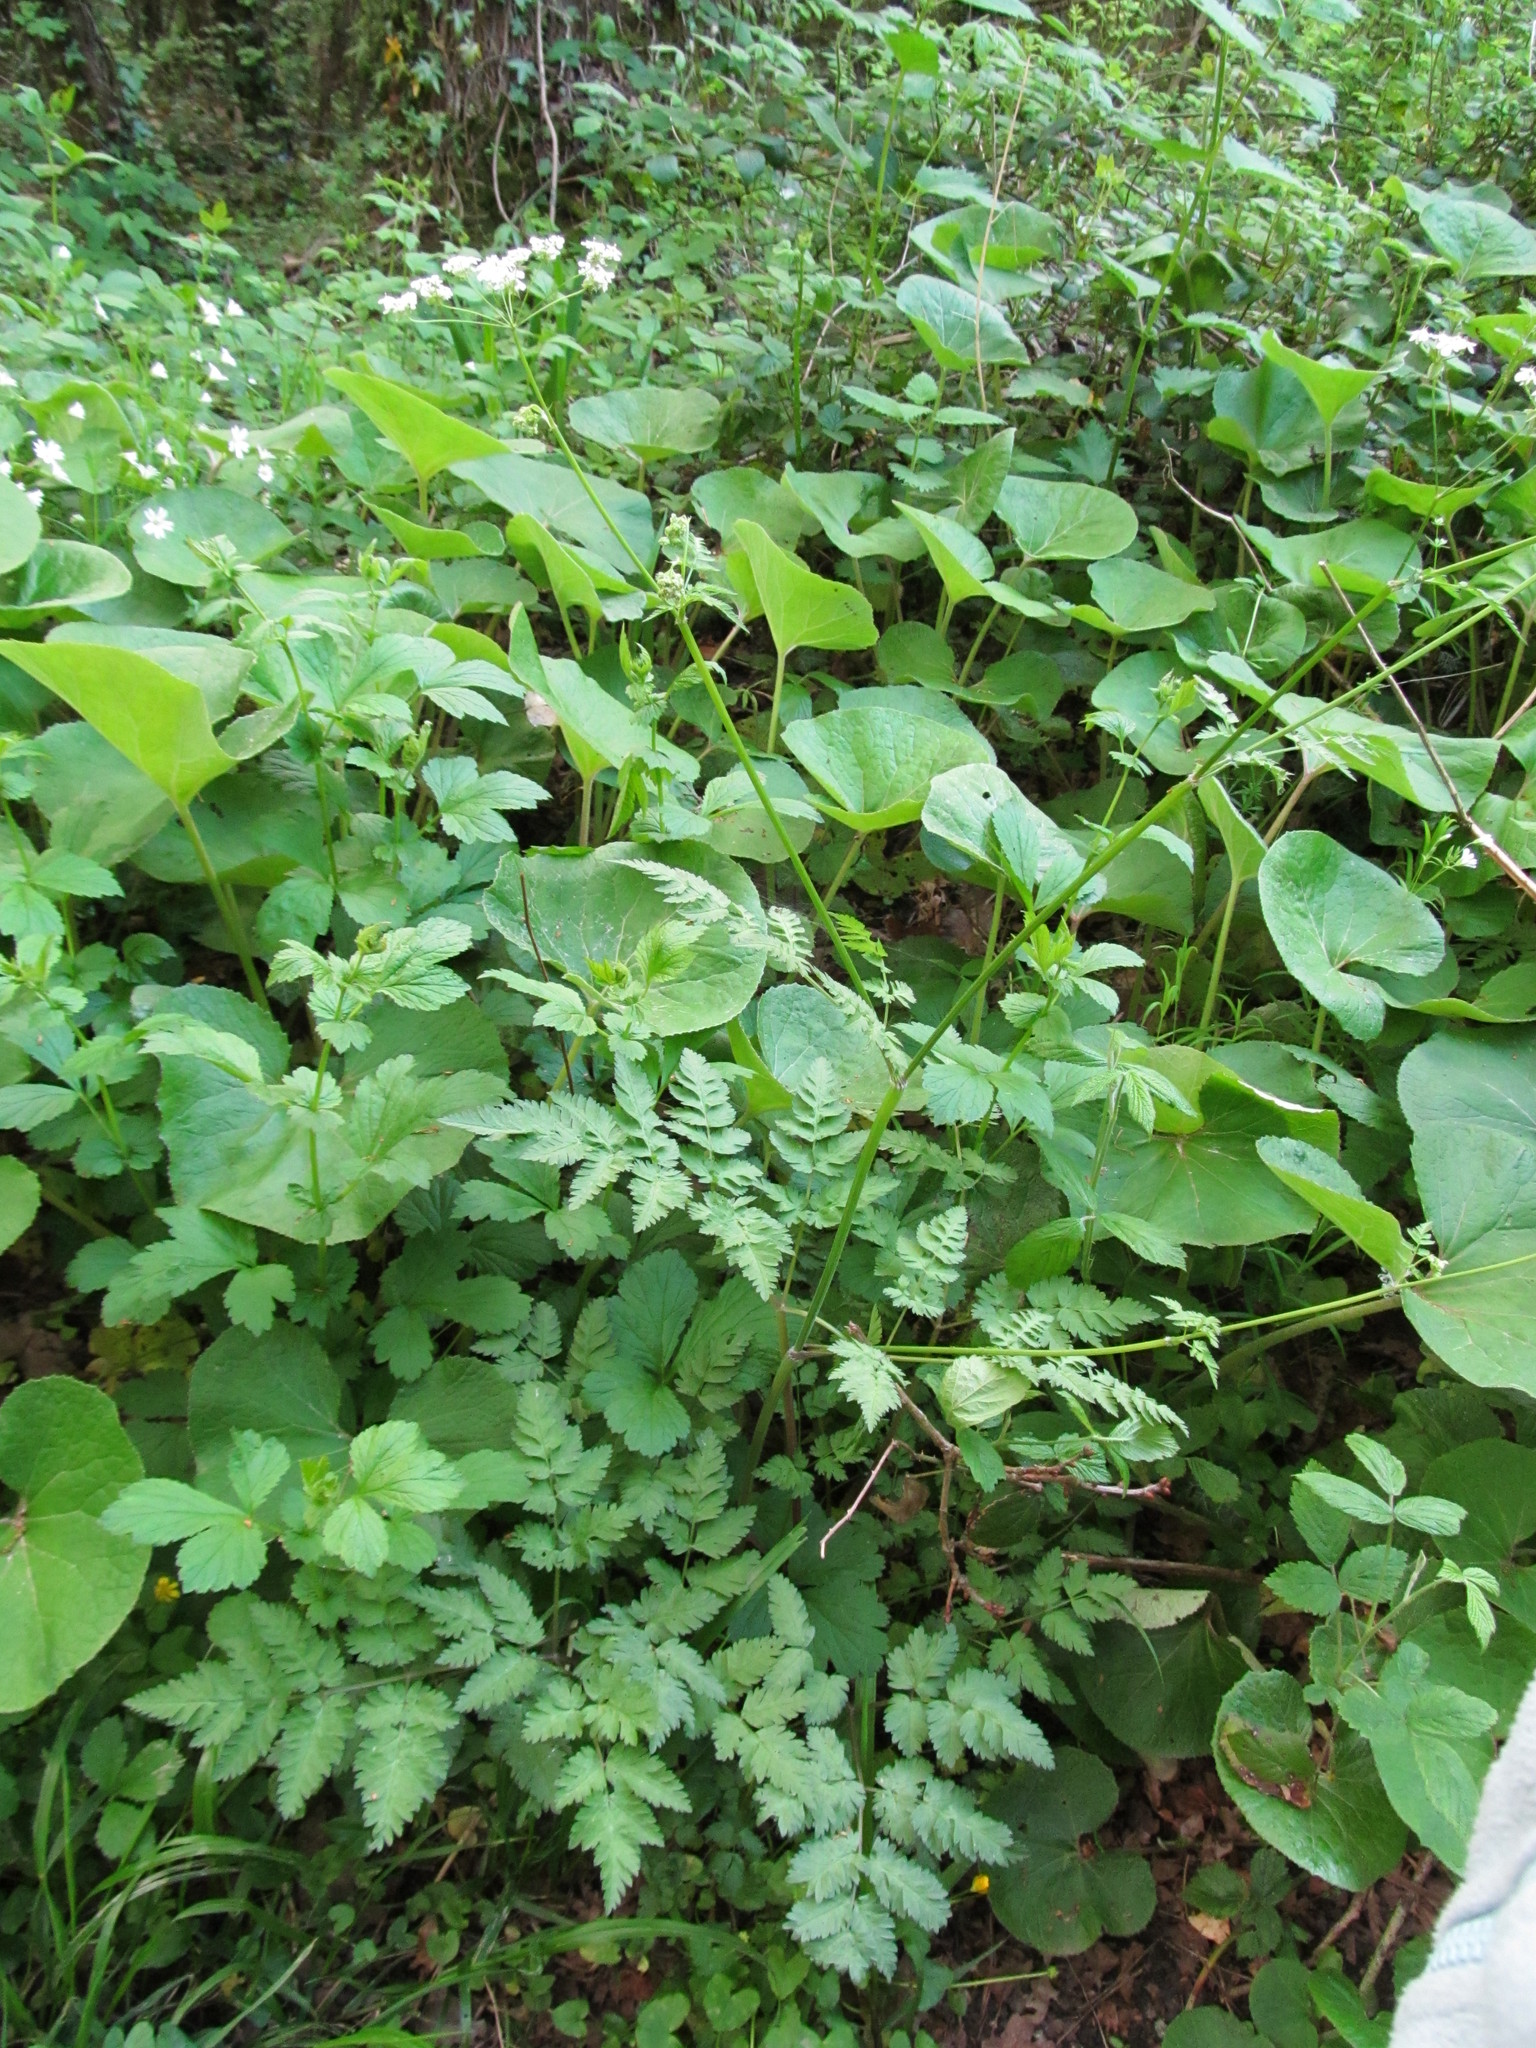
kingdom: Plantae
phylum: Tracheophyta
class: Magnoliopsida
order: Apiales
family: Apiaceae
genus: Anthriscus
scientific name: Anthriscus sylvestris
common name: Cow parsley
